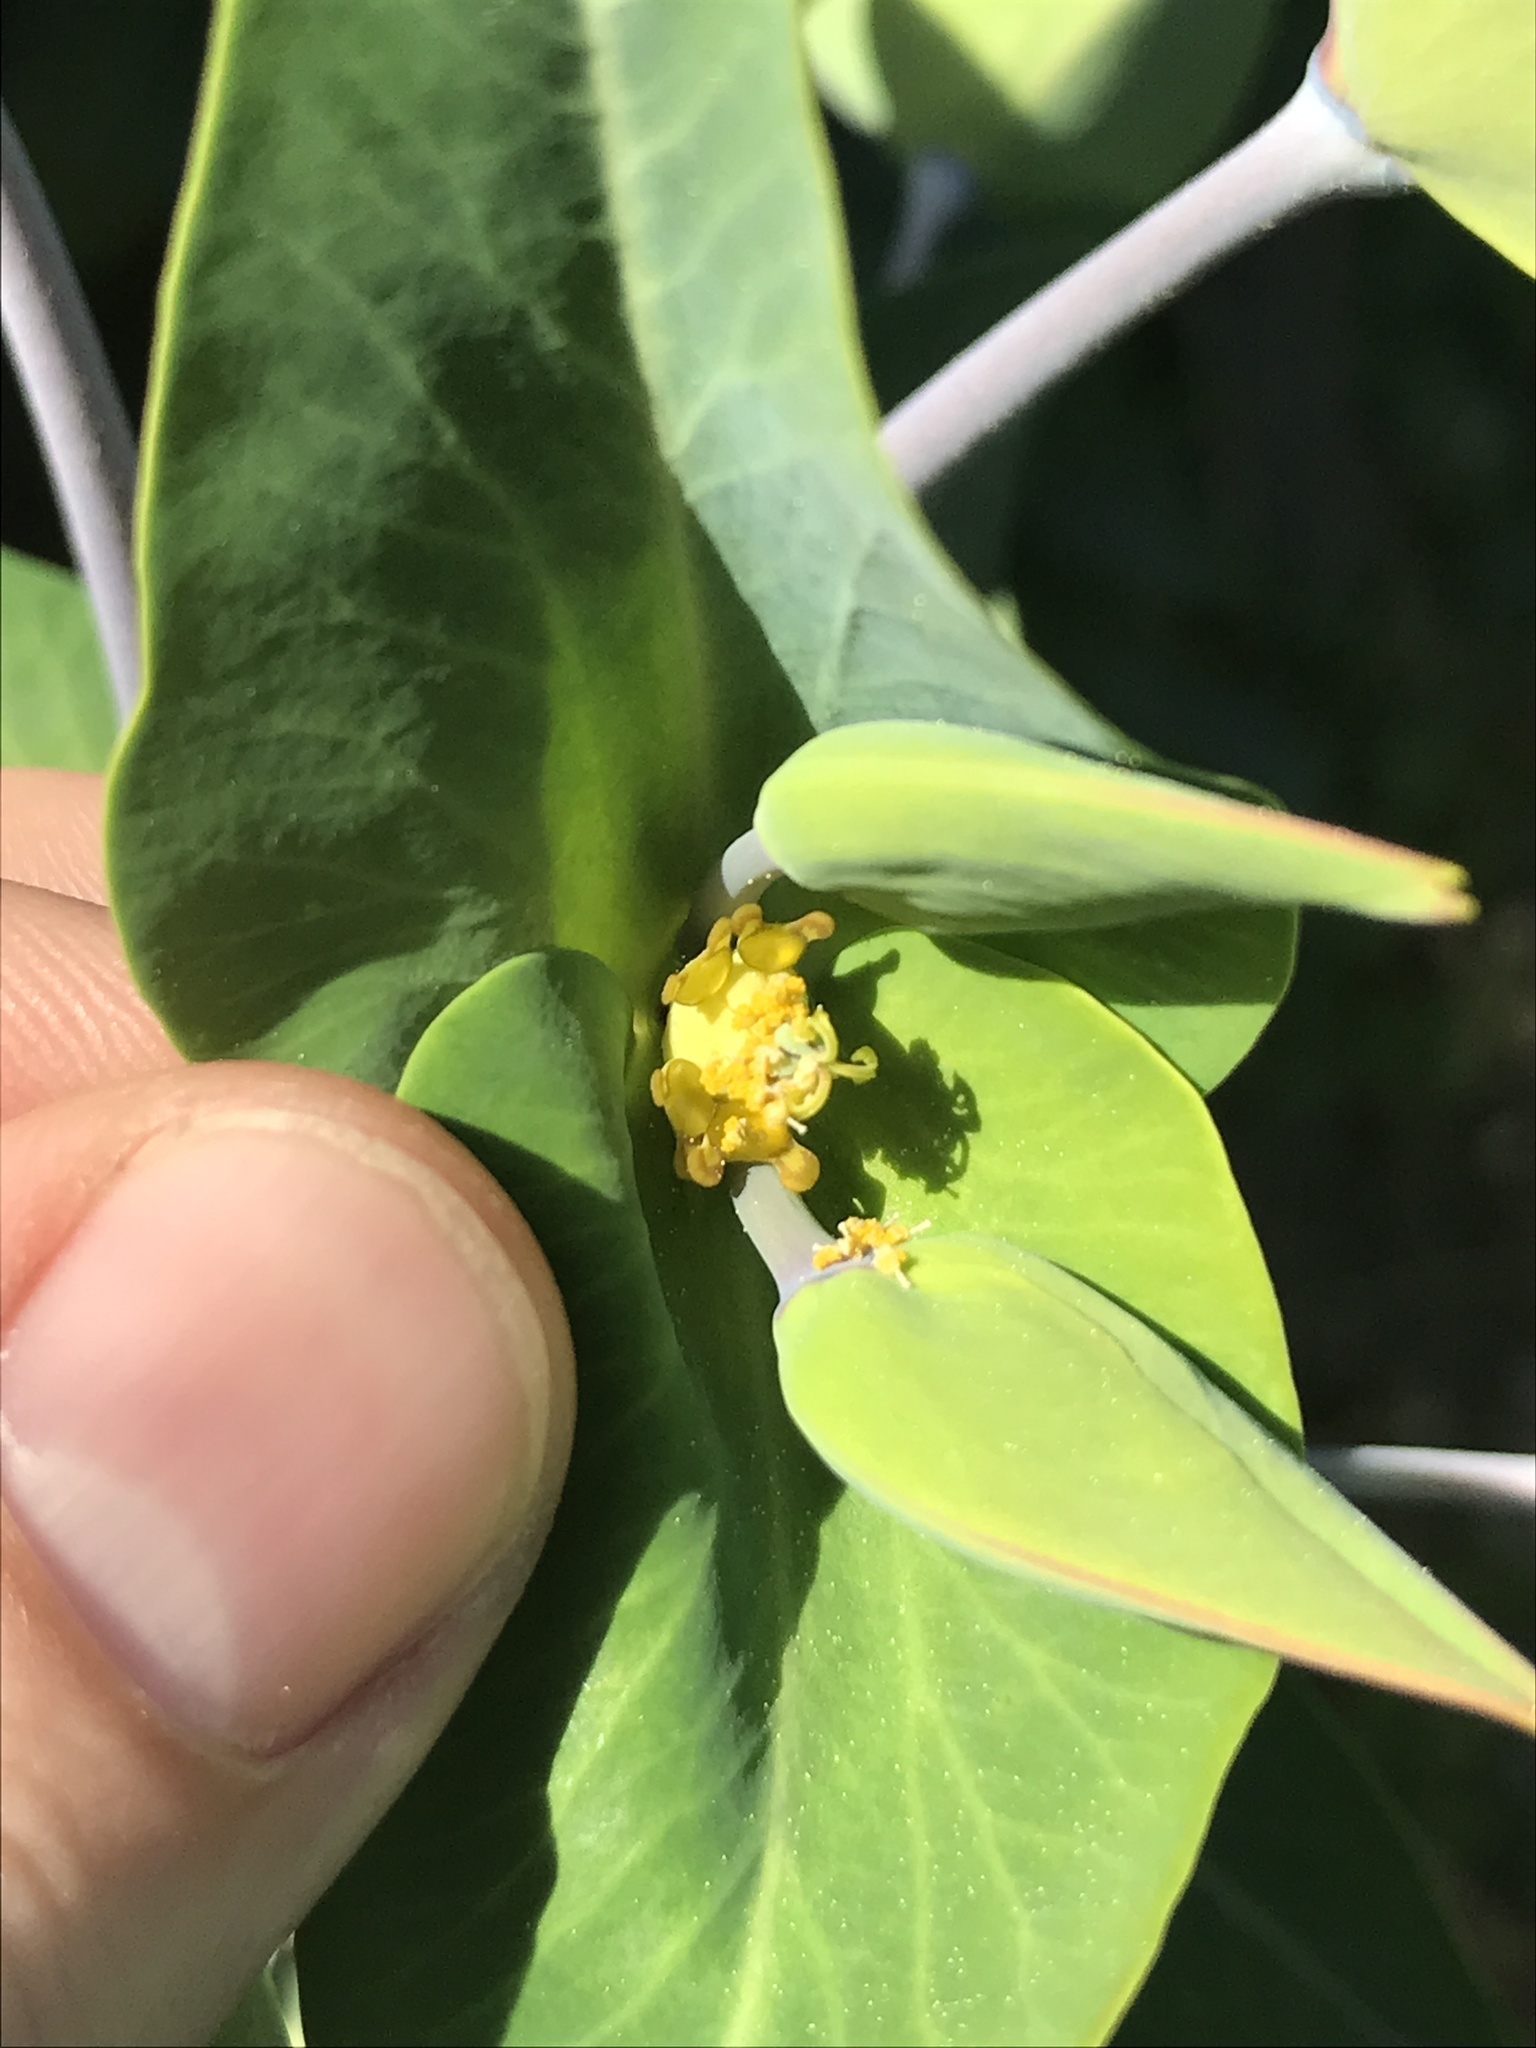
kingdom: Plantae
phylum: Tracheophyta
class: Magnoliopsida
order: Malpighiales
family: Euphorbiaceae
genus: Euphorbia
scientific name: Euphorbia lathyris
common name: Caper spurge
